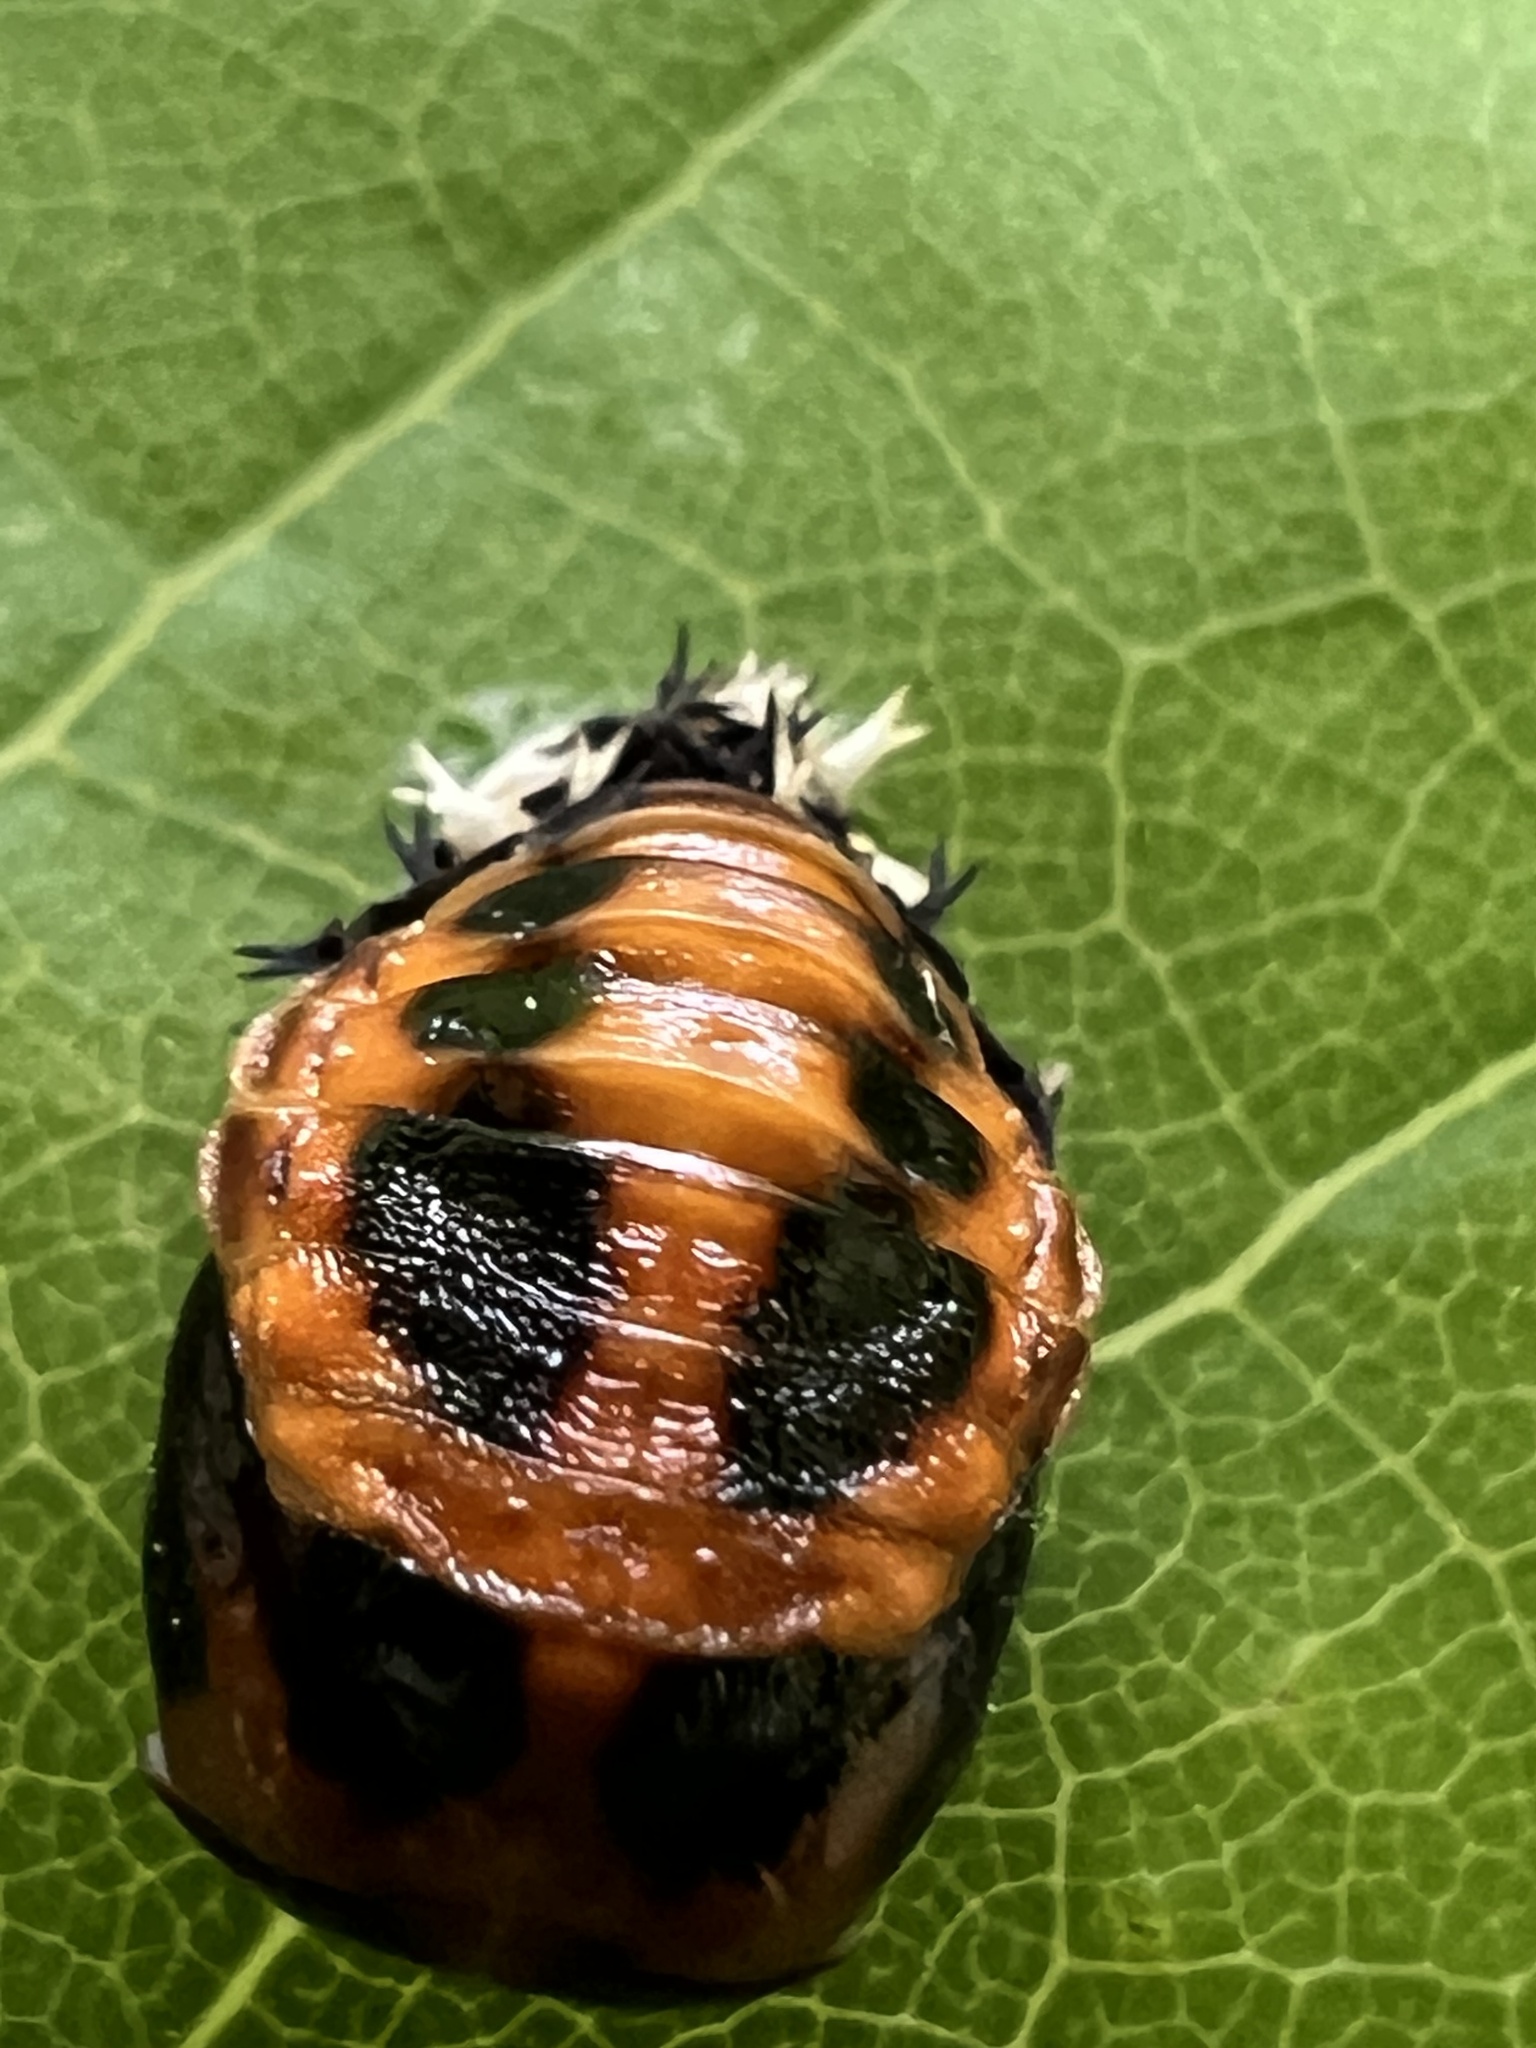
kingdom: Animalia
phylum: Arthropoda
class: Insecta
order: Coleoptera
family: Coccinellidae
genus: Harmonia
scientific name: Harmonia axyridis
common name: Harlequin ladybird
